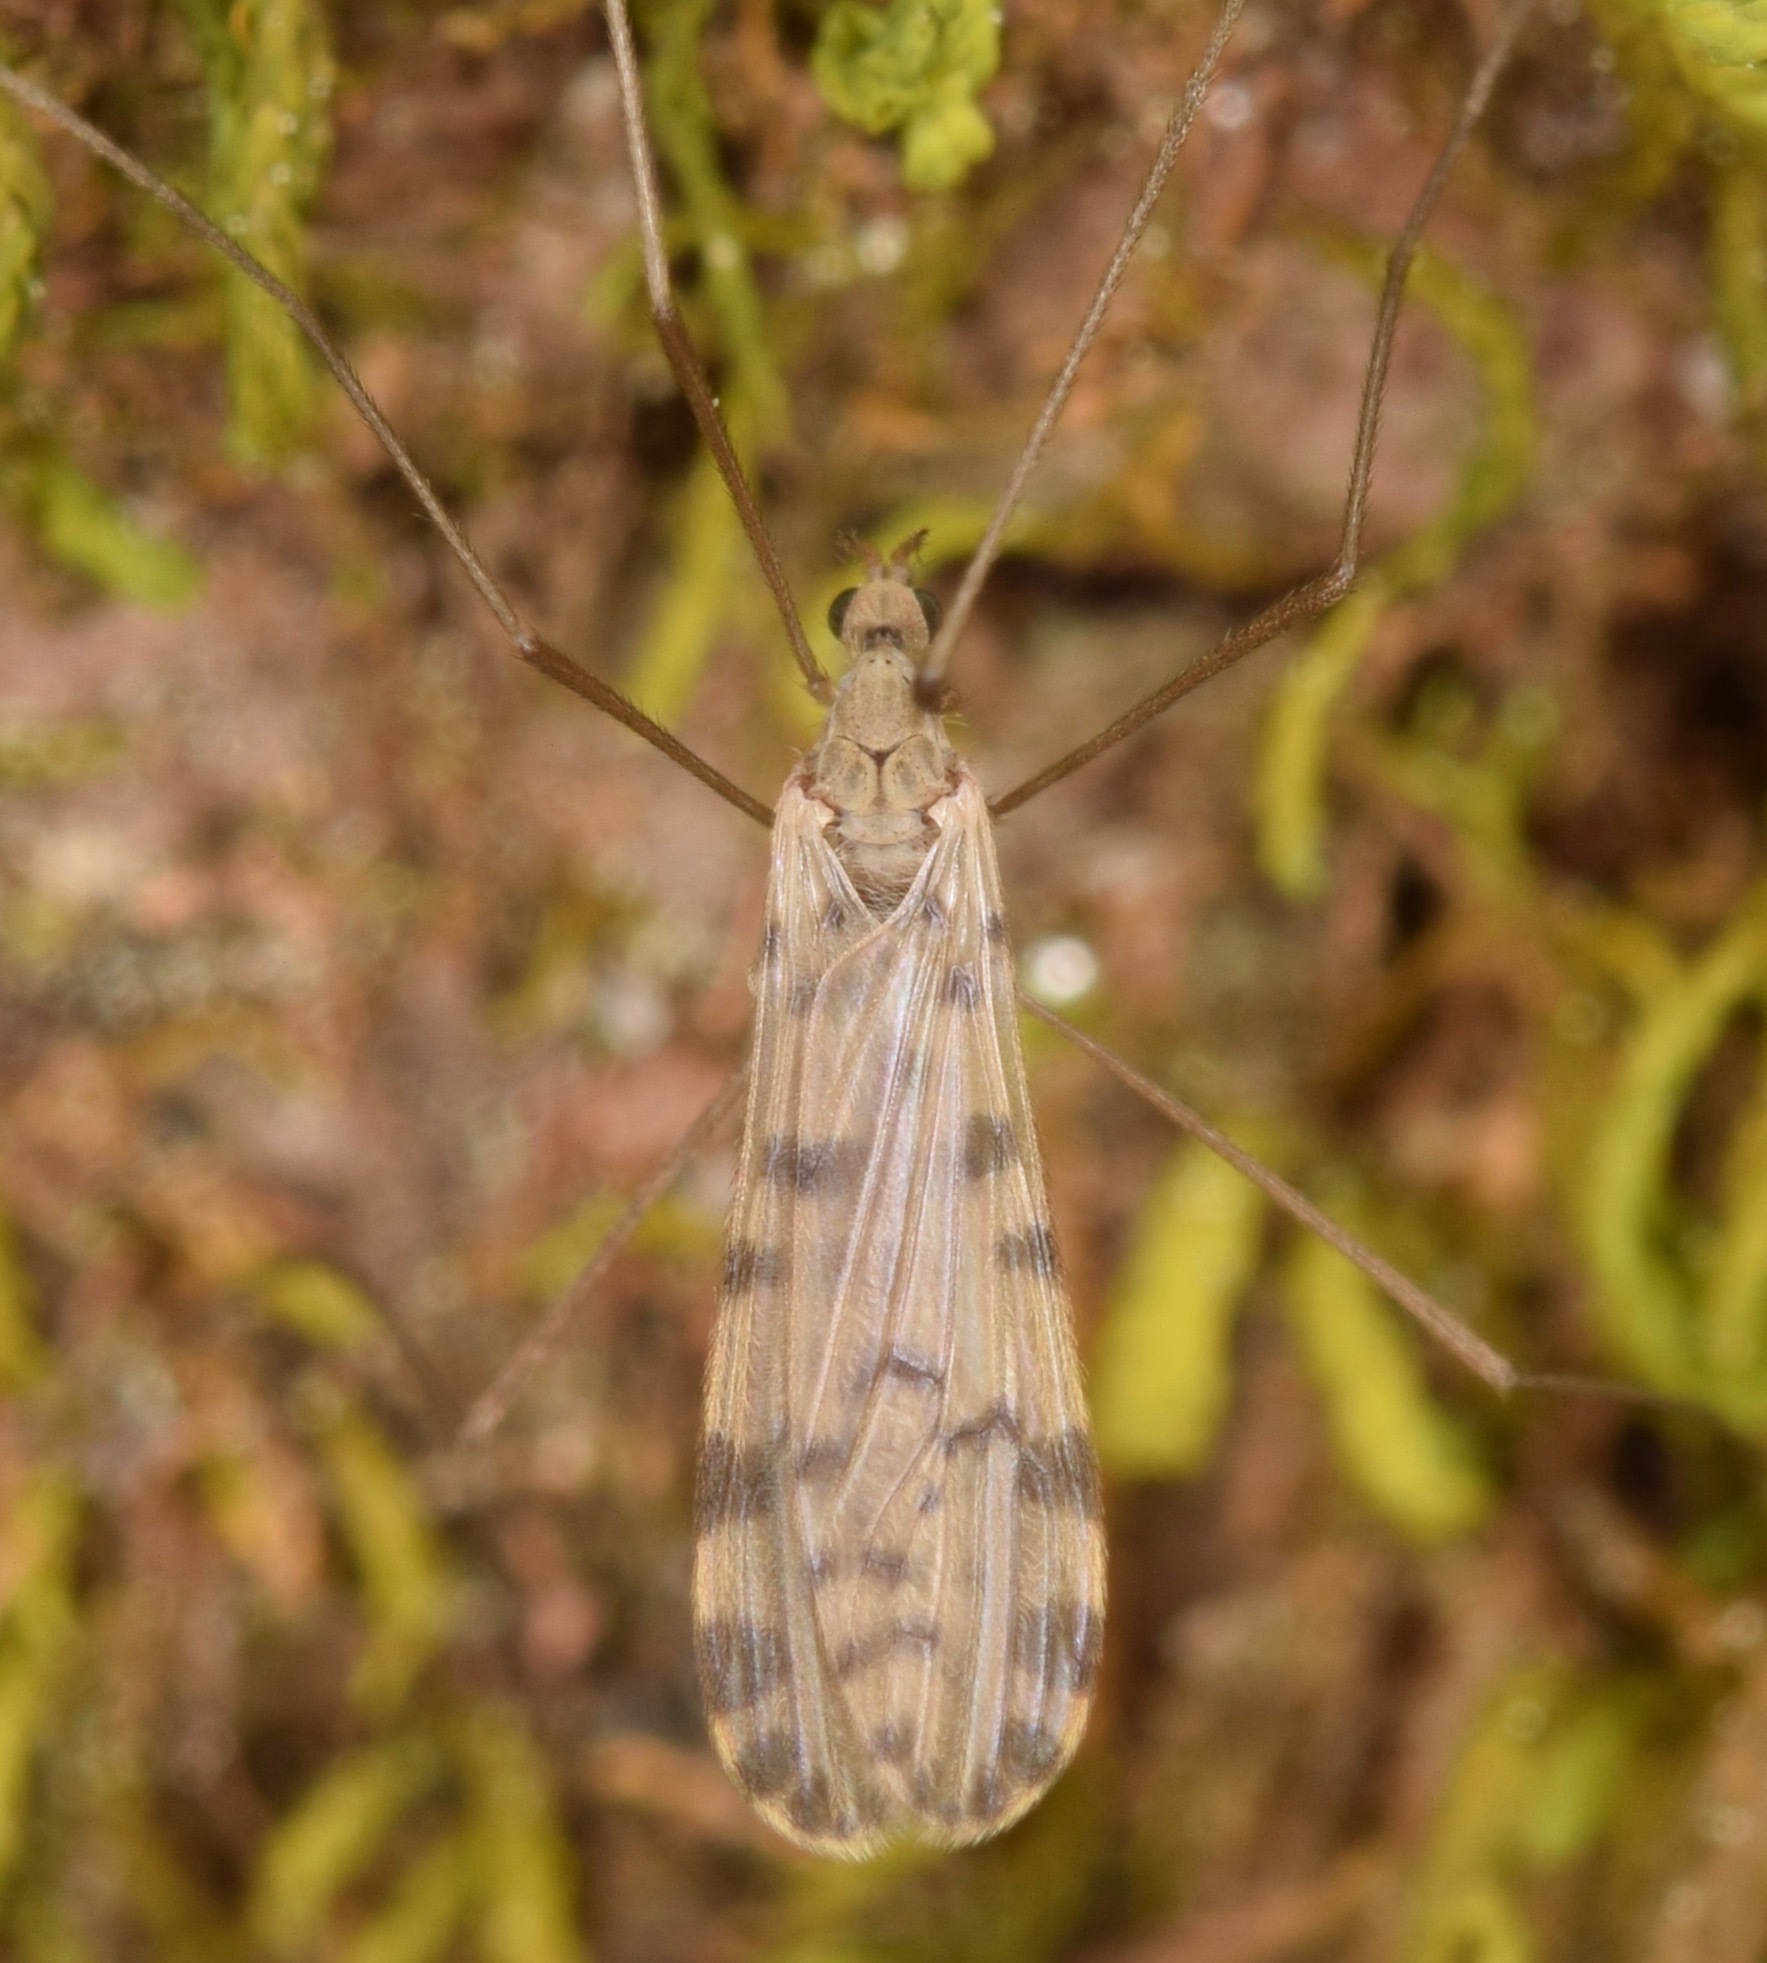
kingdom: Animalia
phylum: Arthropoda
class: Insecta
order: Diptera
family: Limoniidae
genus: Hoplolabis
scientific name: Hoplolabis armata
